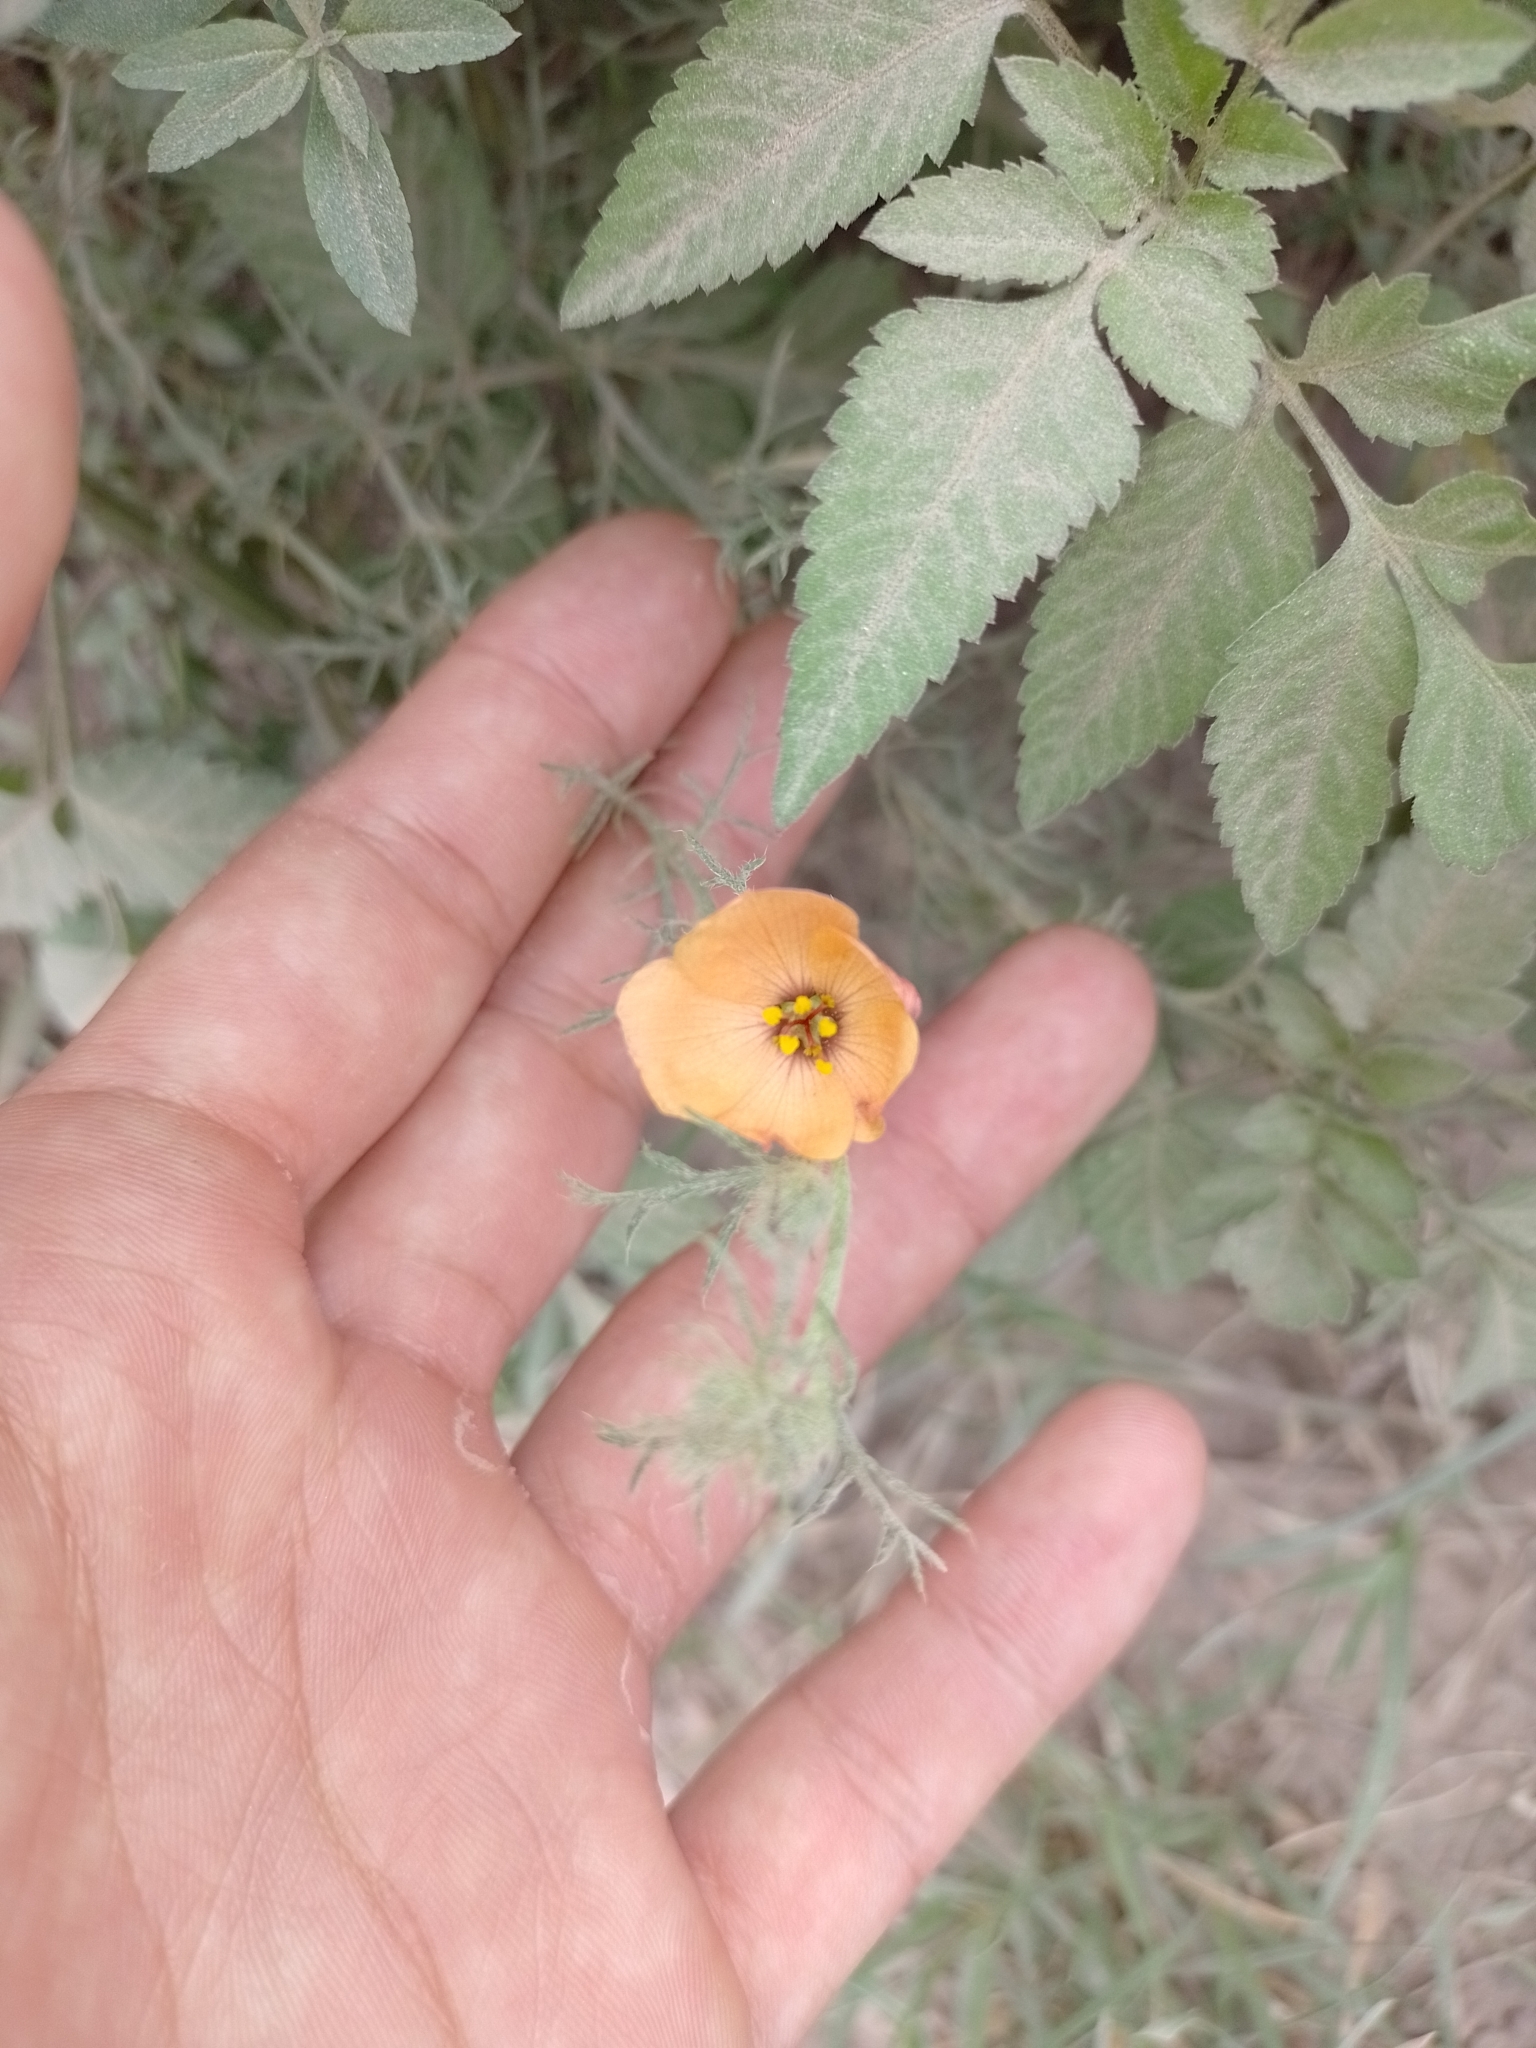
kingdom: Plantae
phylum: Tracheophyta
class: Magnoliopsida
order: Malpighiales
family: Turneraceae
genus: Turnera
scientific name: Turnera sidoides
